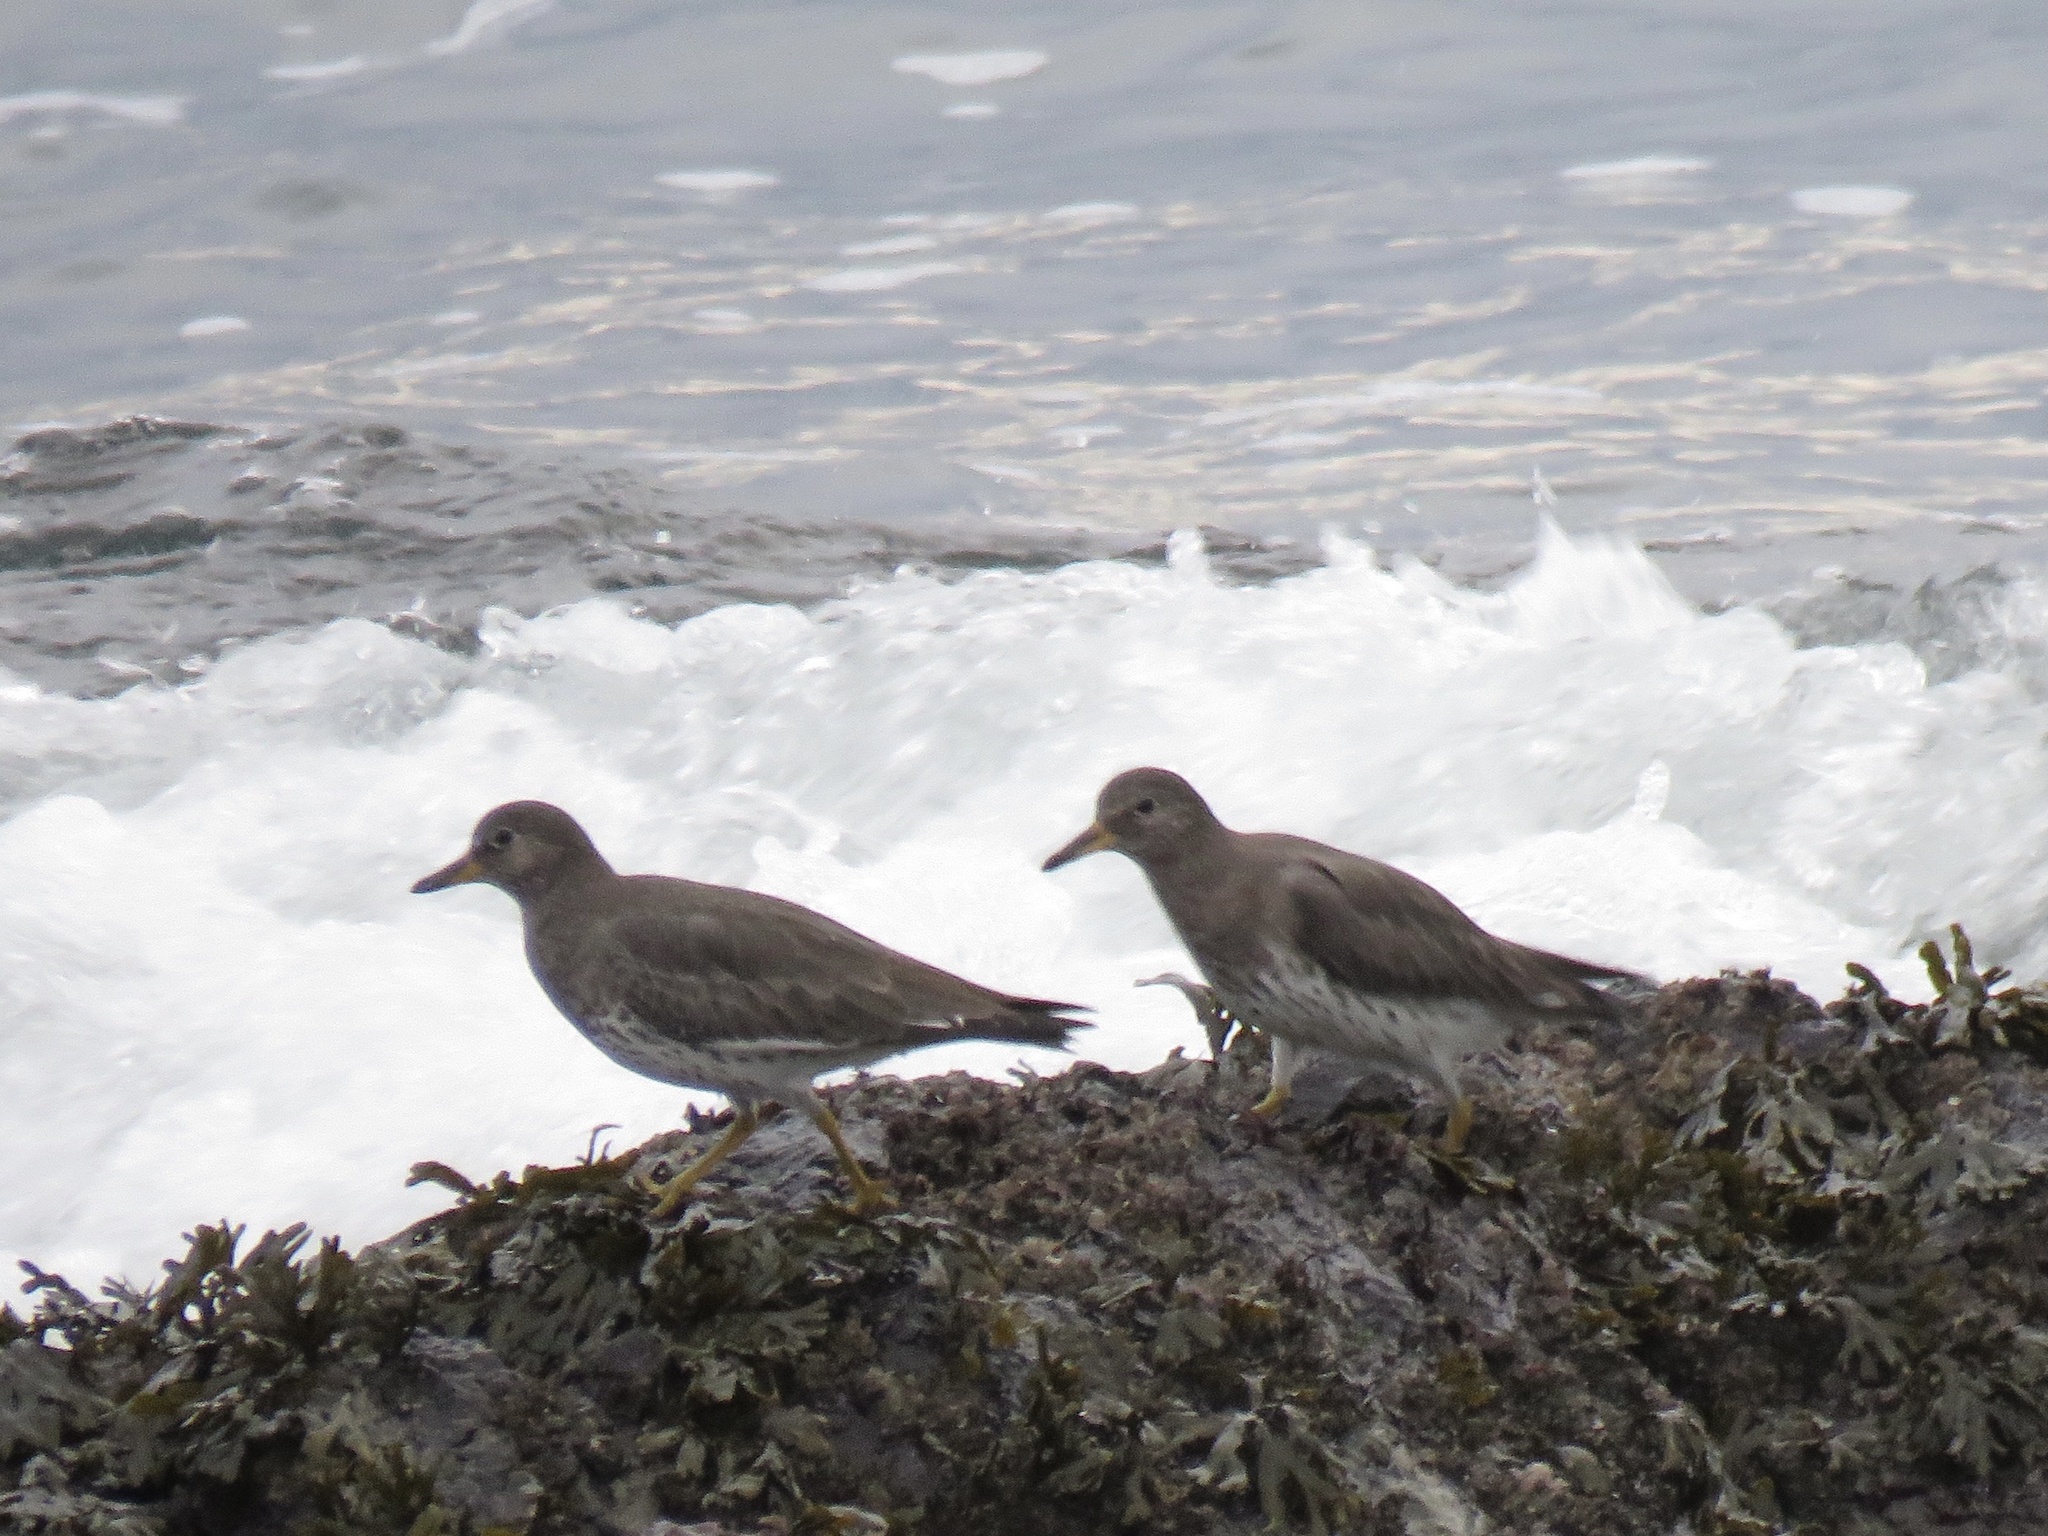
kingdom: Animalia
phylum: Chordata
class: Aves
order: Charadriiformes
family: Scolopacidae
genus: Calidris
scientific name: Calidris virgata
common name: Surfbird
